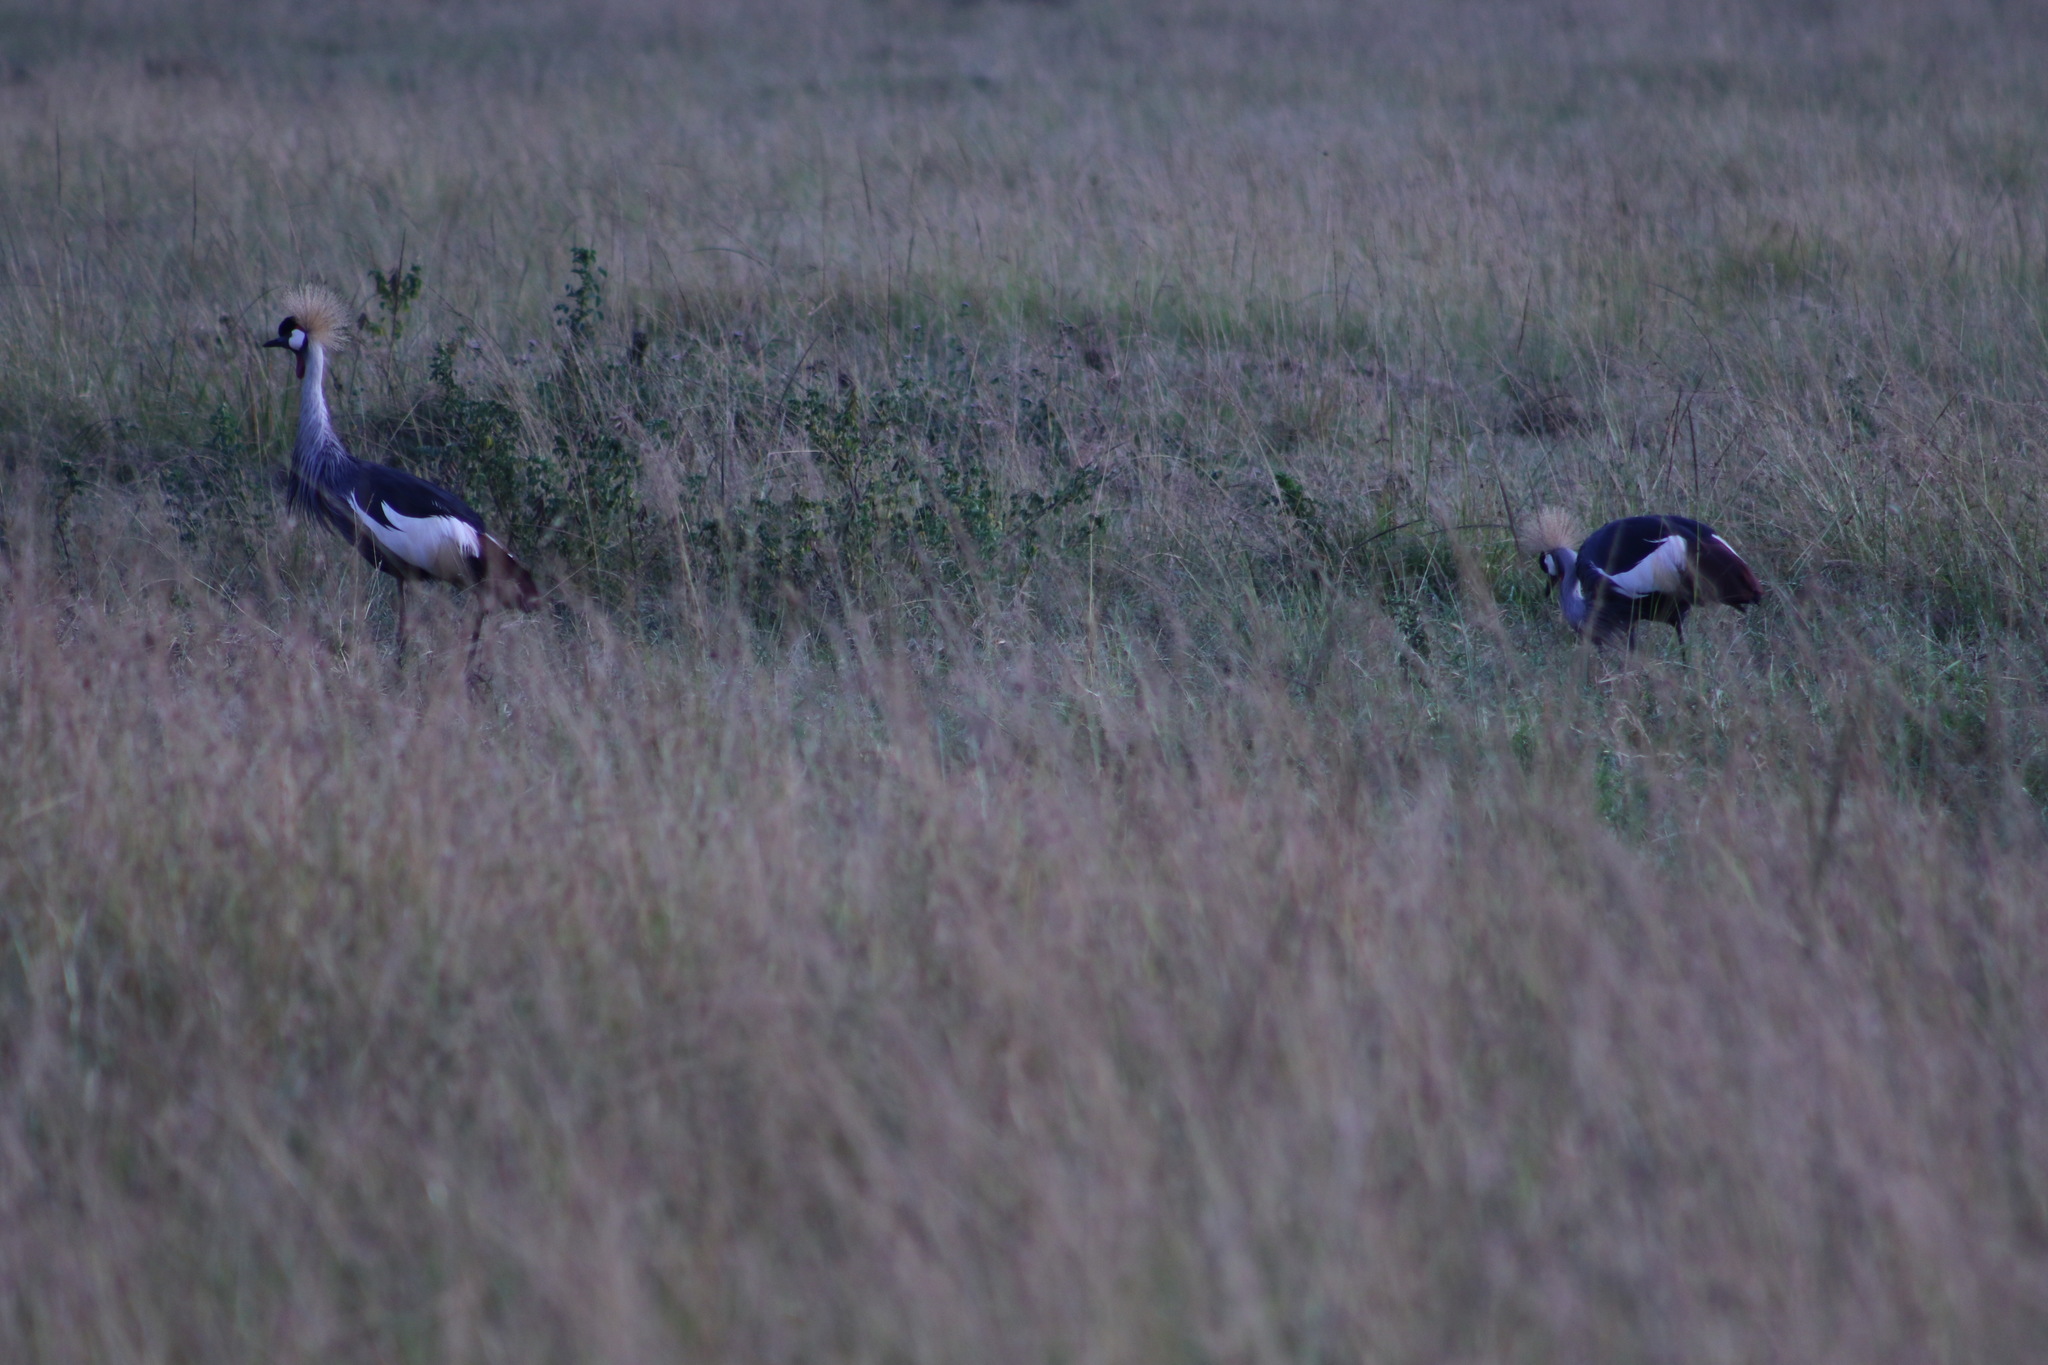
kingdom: Animalia
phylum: Chordata
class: Aves
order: Gruiformes
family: Gruidae
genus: Balearica
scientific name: Balearica regulorum
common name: Grey crowned crane
